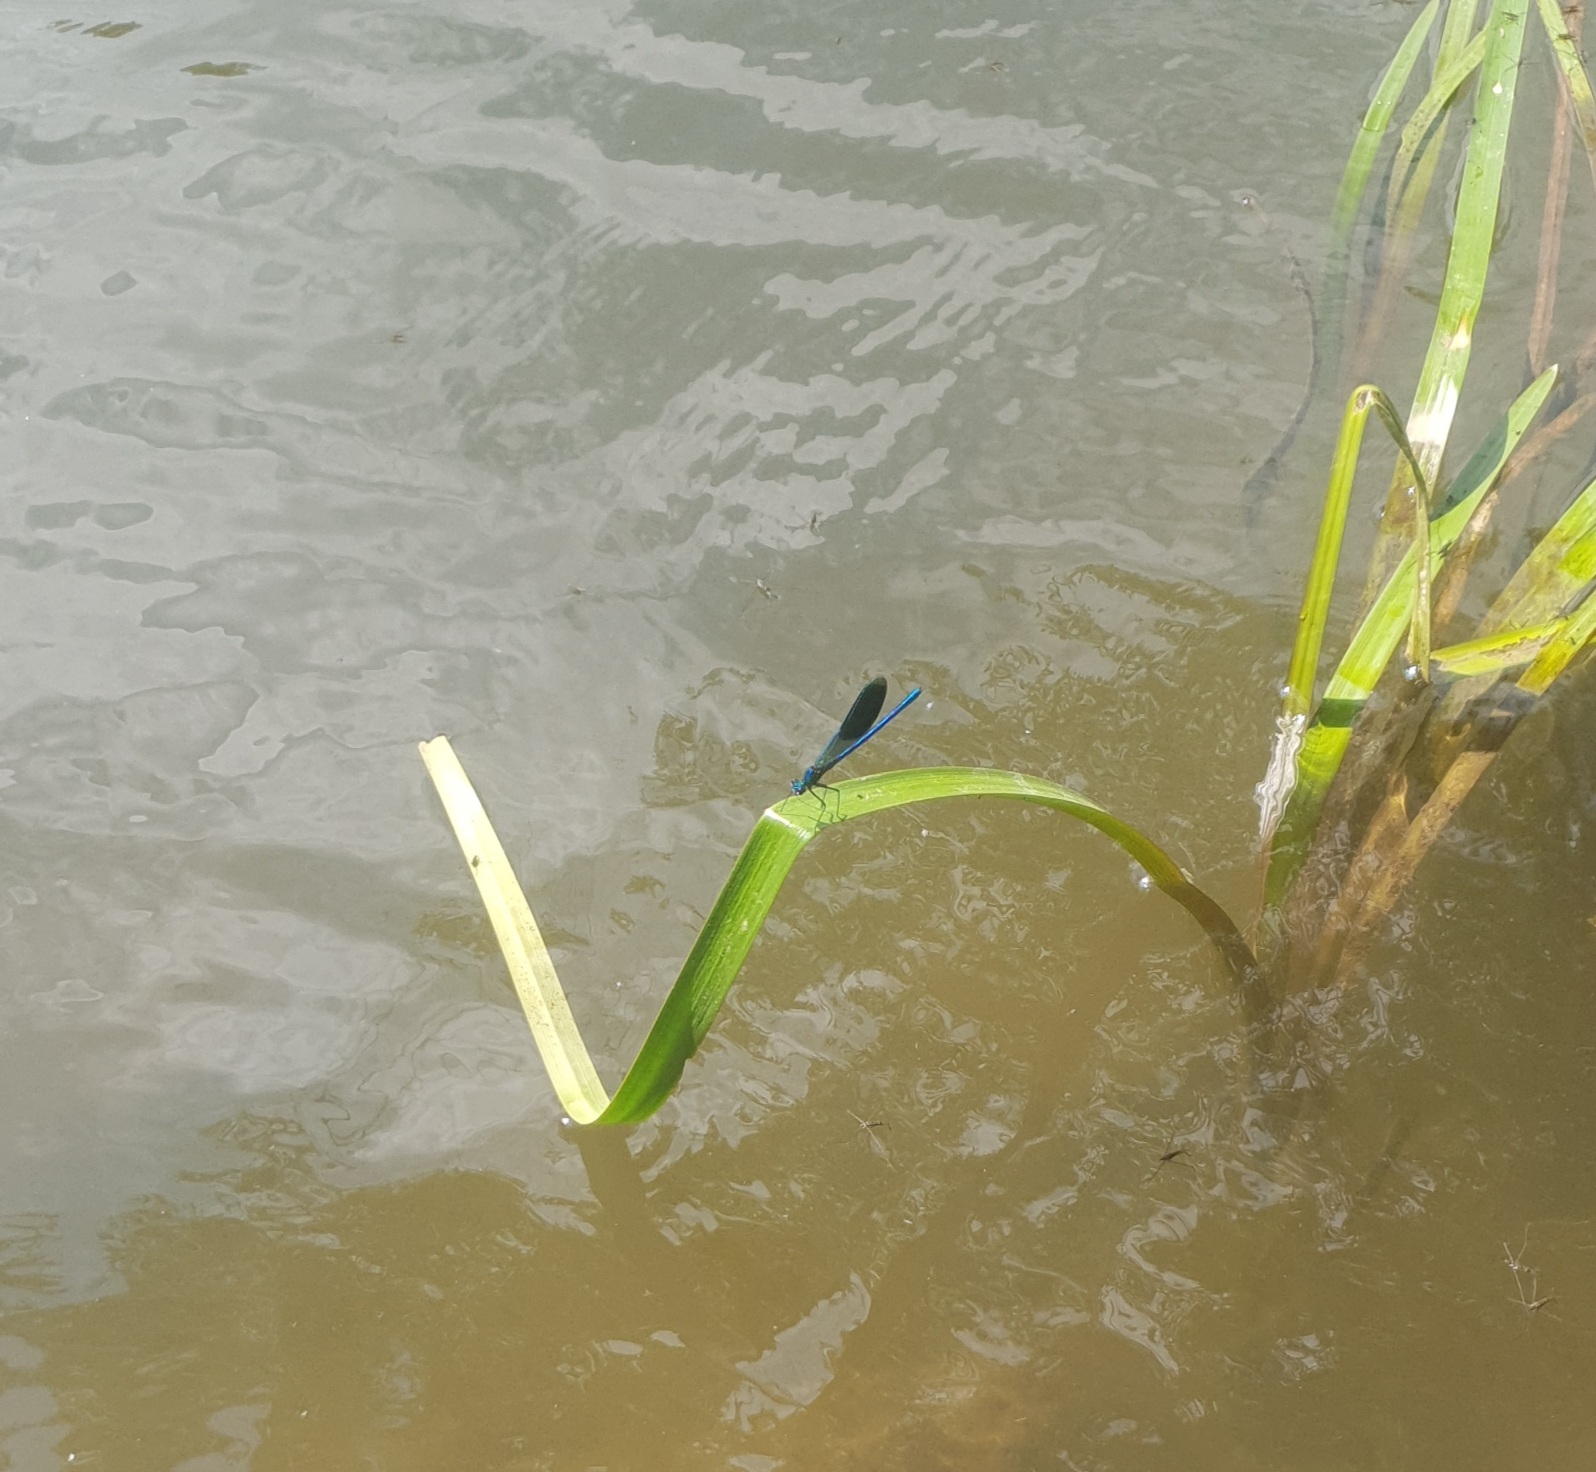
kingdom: Animalia
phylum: Arthropoda
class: Insecta
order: Odonata
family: Calopterygidae
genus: Calopteryx
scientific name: Calopteryx splendens
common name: Banded demoiselle
